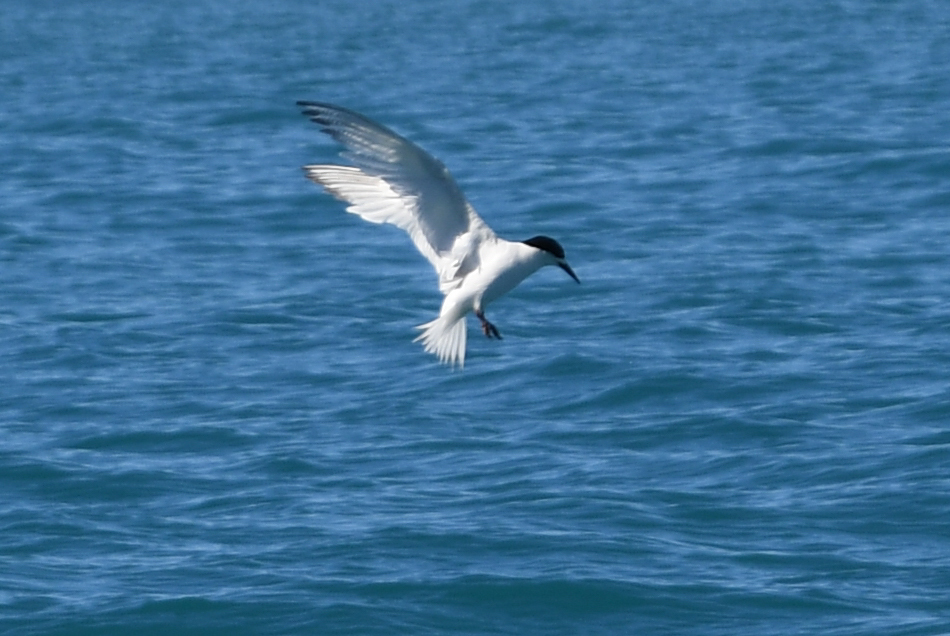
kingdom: Animalia
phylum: Chordata
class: Aves
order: Charadriiformes
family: Laridae
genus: Sterna
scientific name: Sterna striata
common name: White-fronted tern
